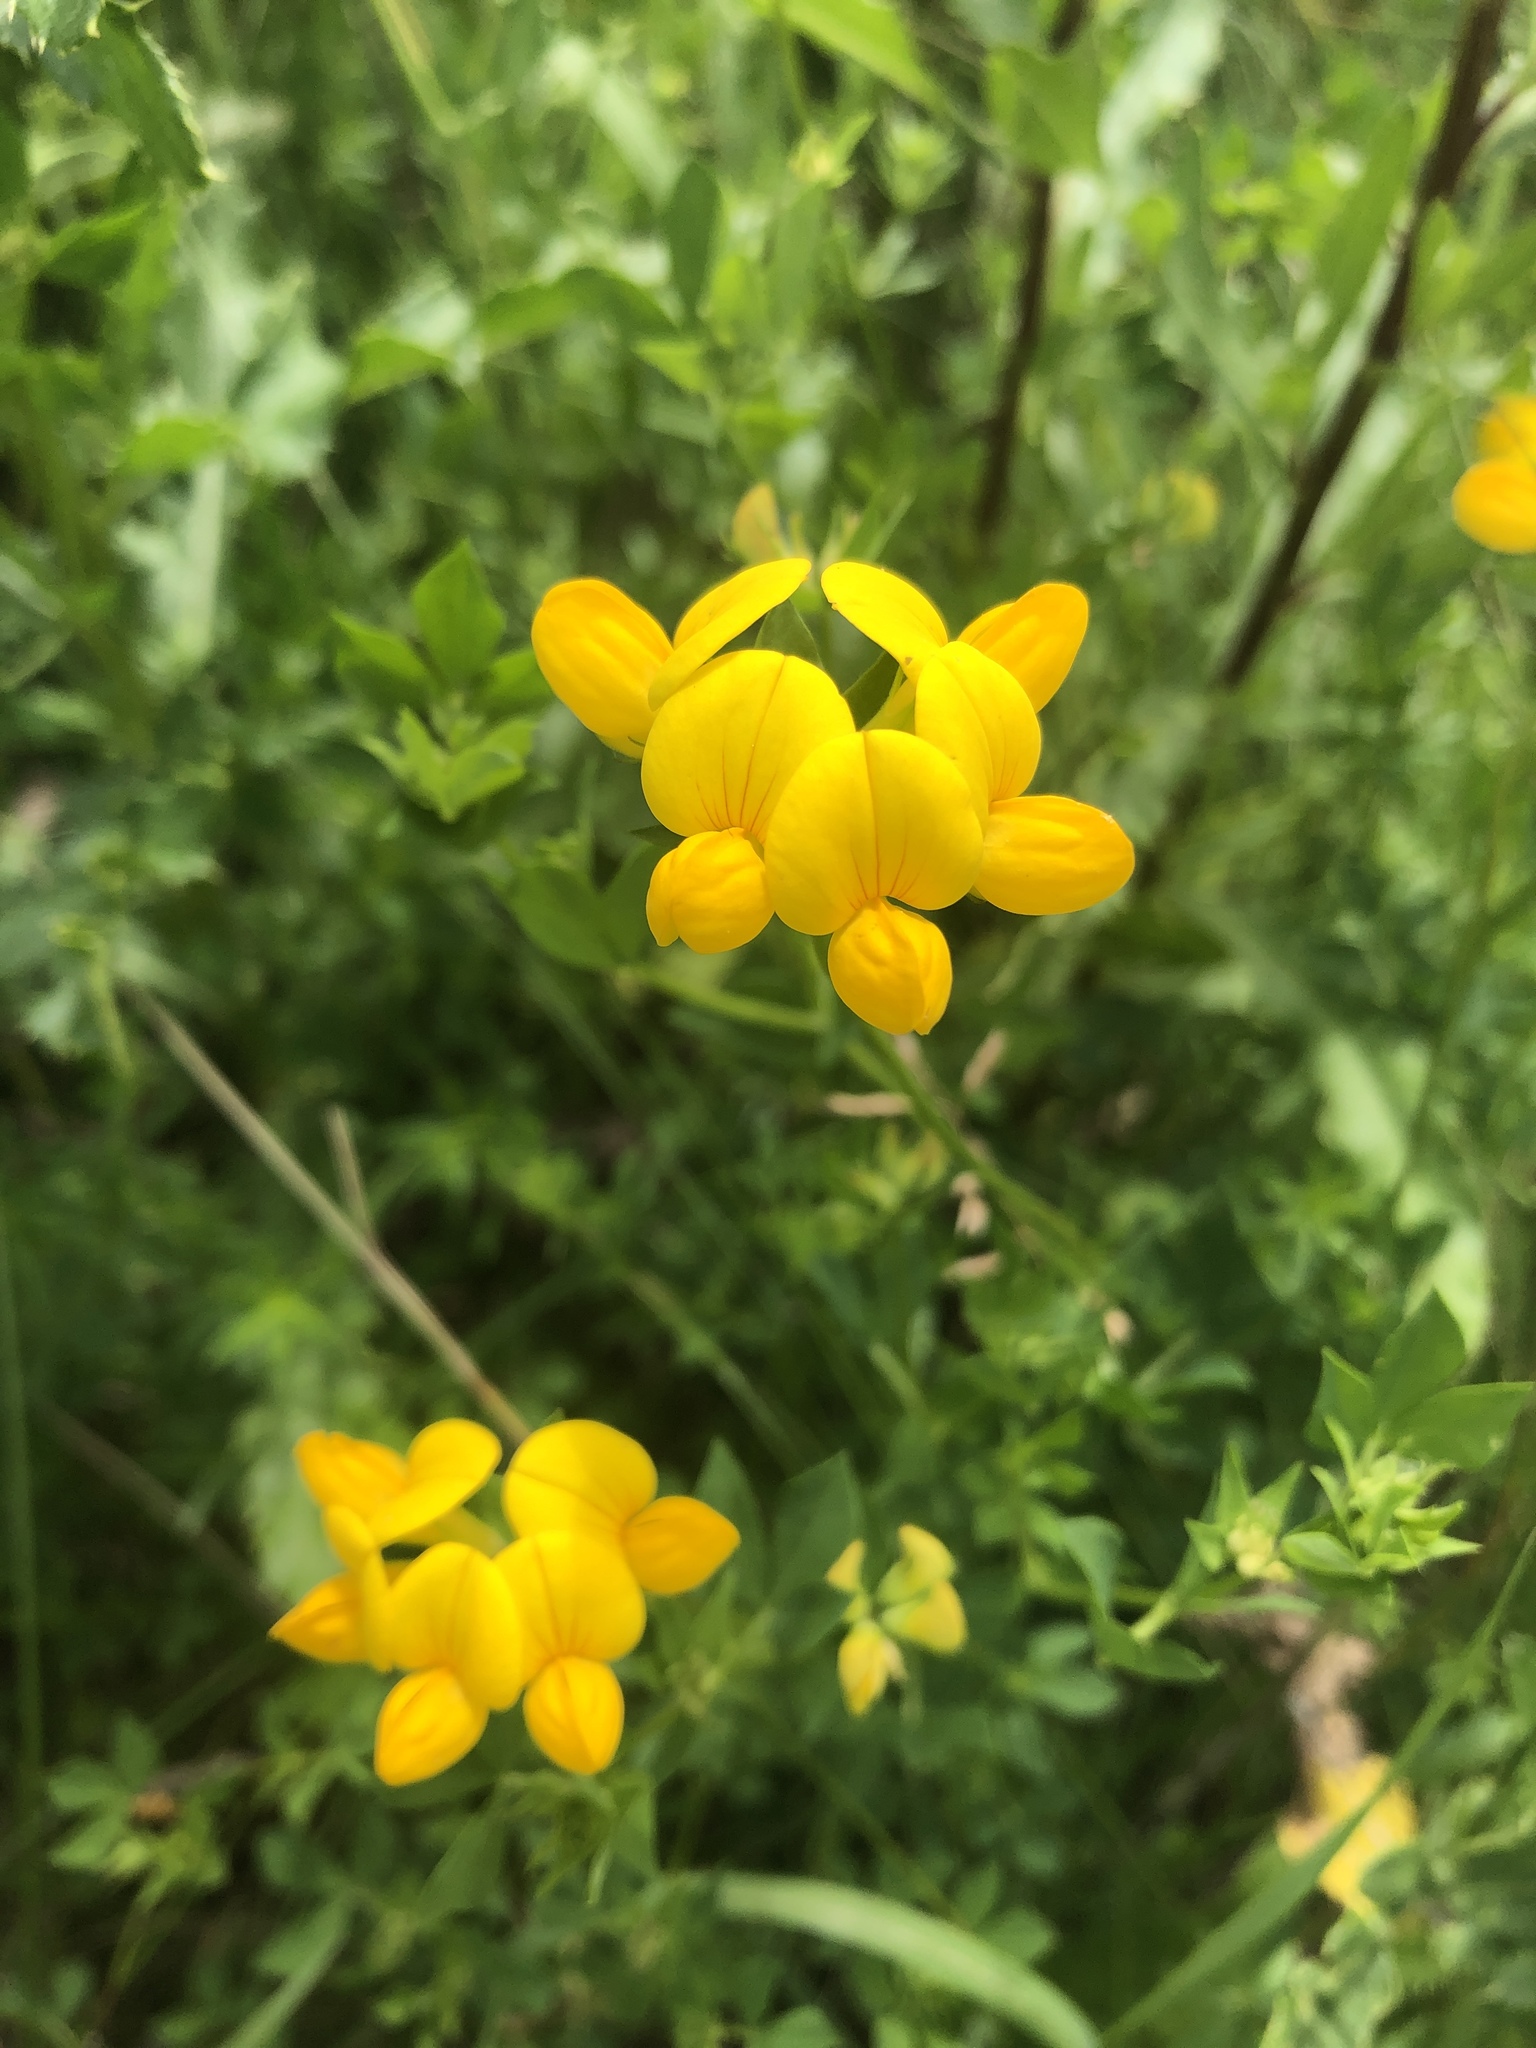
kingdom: Plantae
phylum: Tracheophyta
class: Magnoliopsida
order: Fabales
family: Fabaceae
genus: Lotus
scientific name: Lotus corniculatus
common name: Common bird's-foot-trefoil
